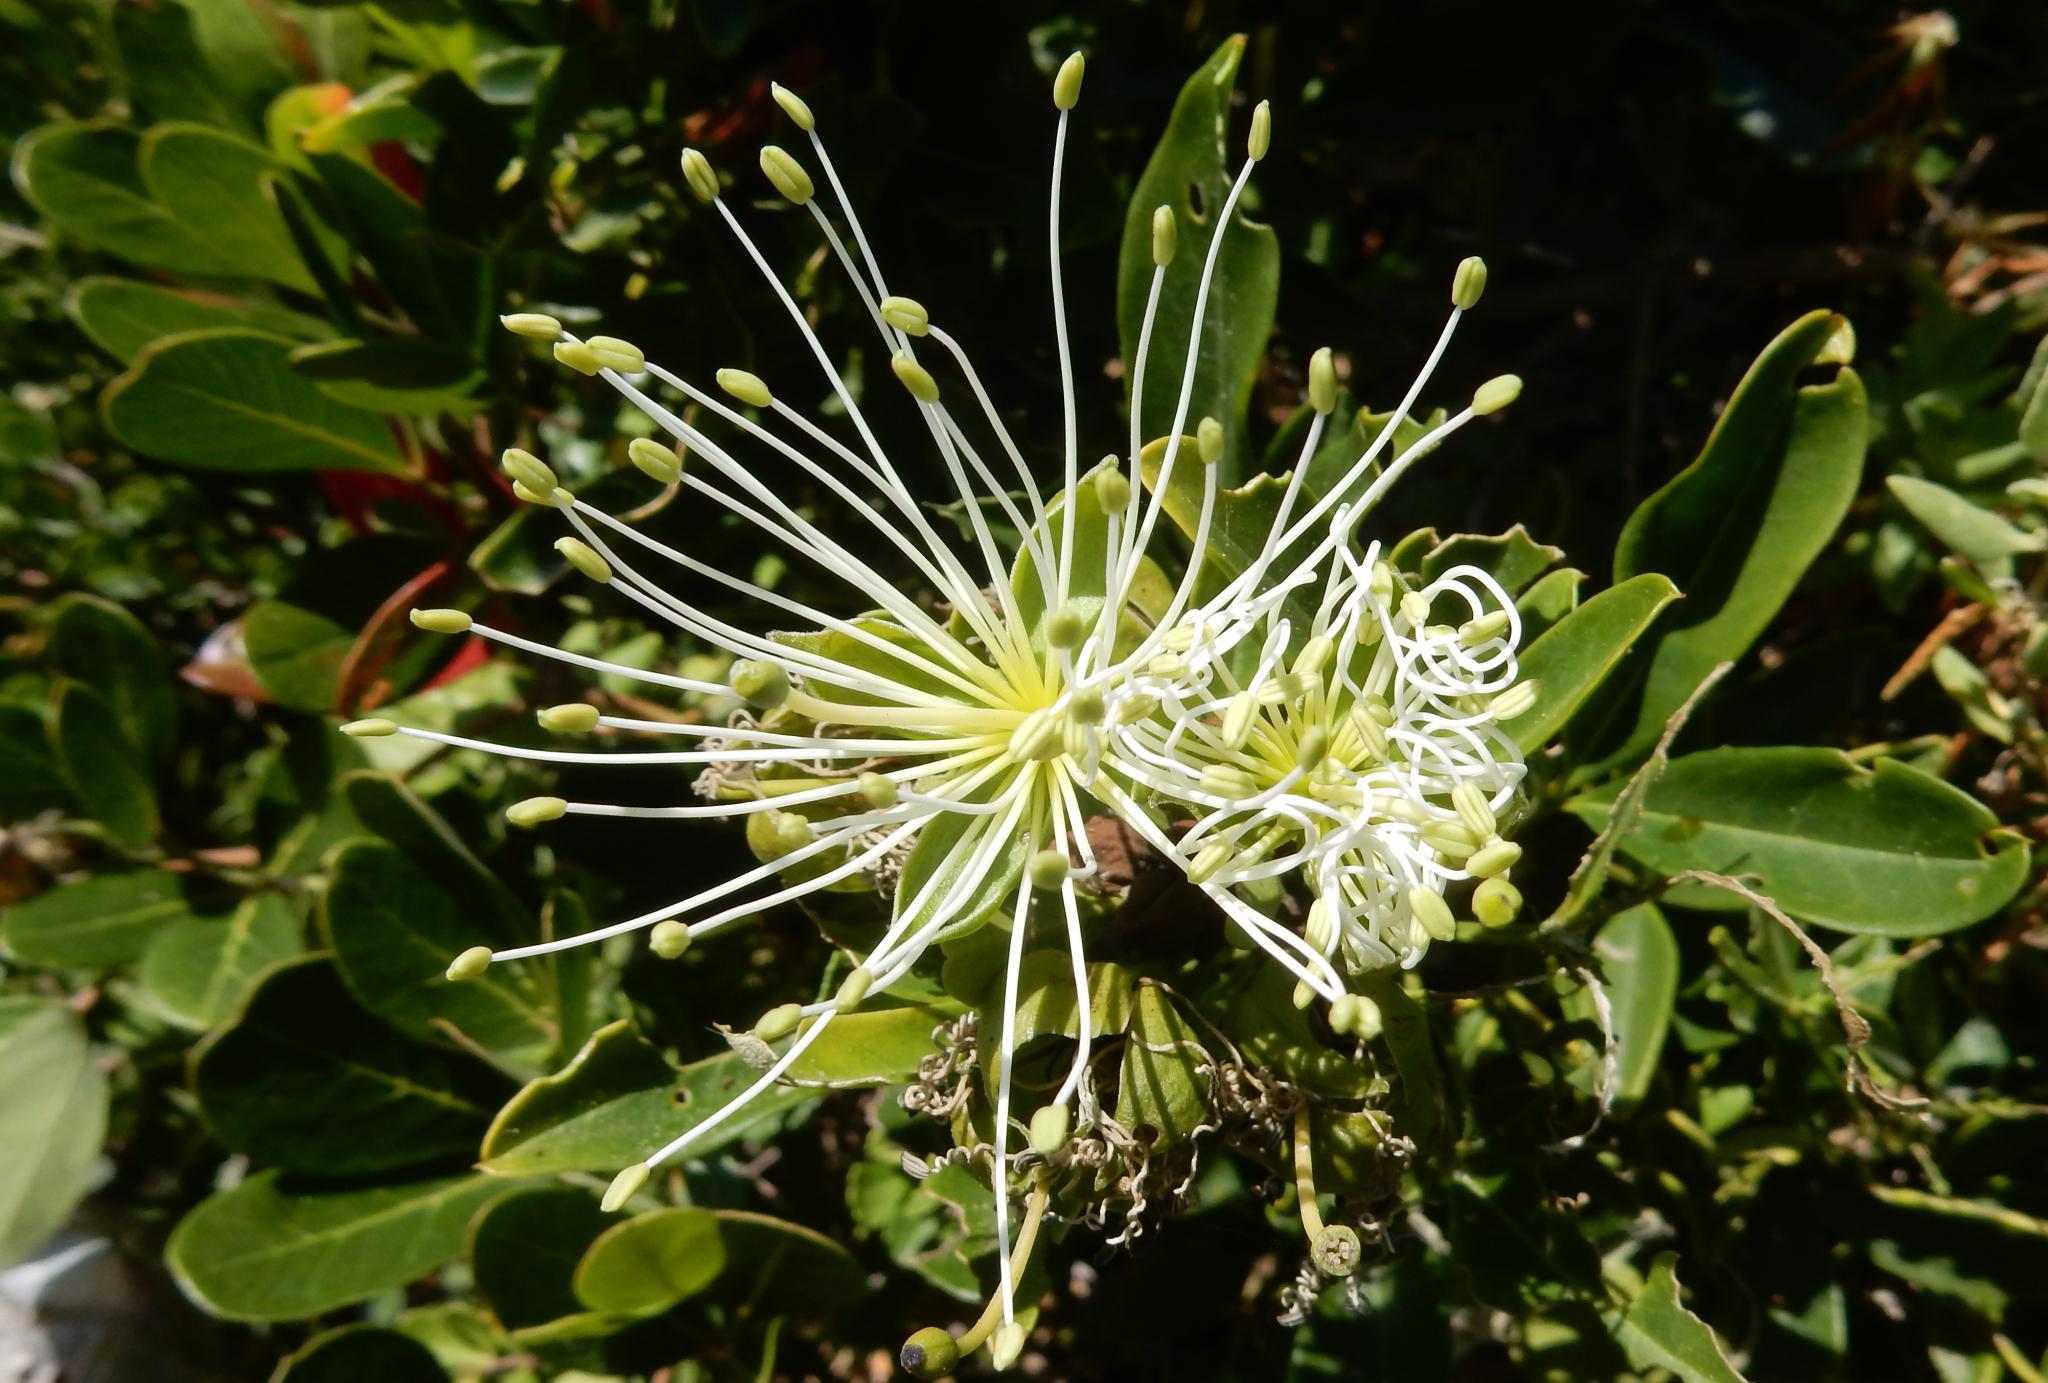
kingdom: Plantae
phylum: Tracheophyta
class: Magnoliopsida
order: Brassicales
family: Capparaceae
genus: Maerua
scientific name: Maerua cafra
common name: Bush maerua
